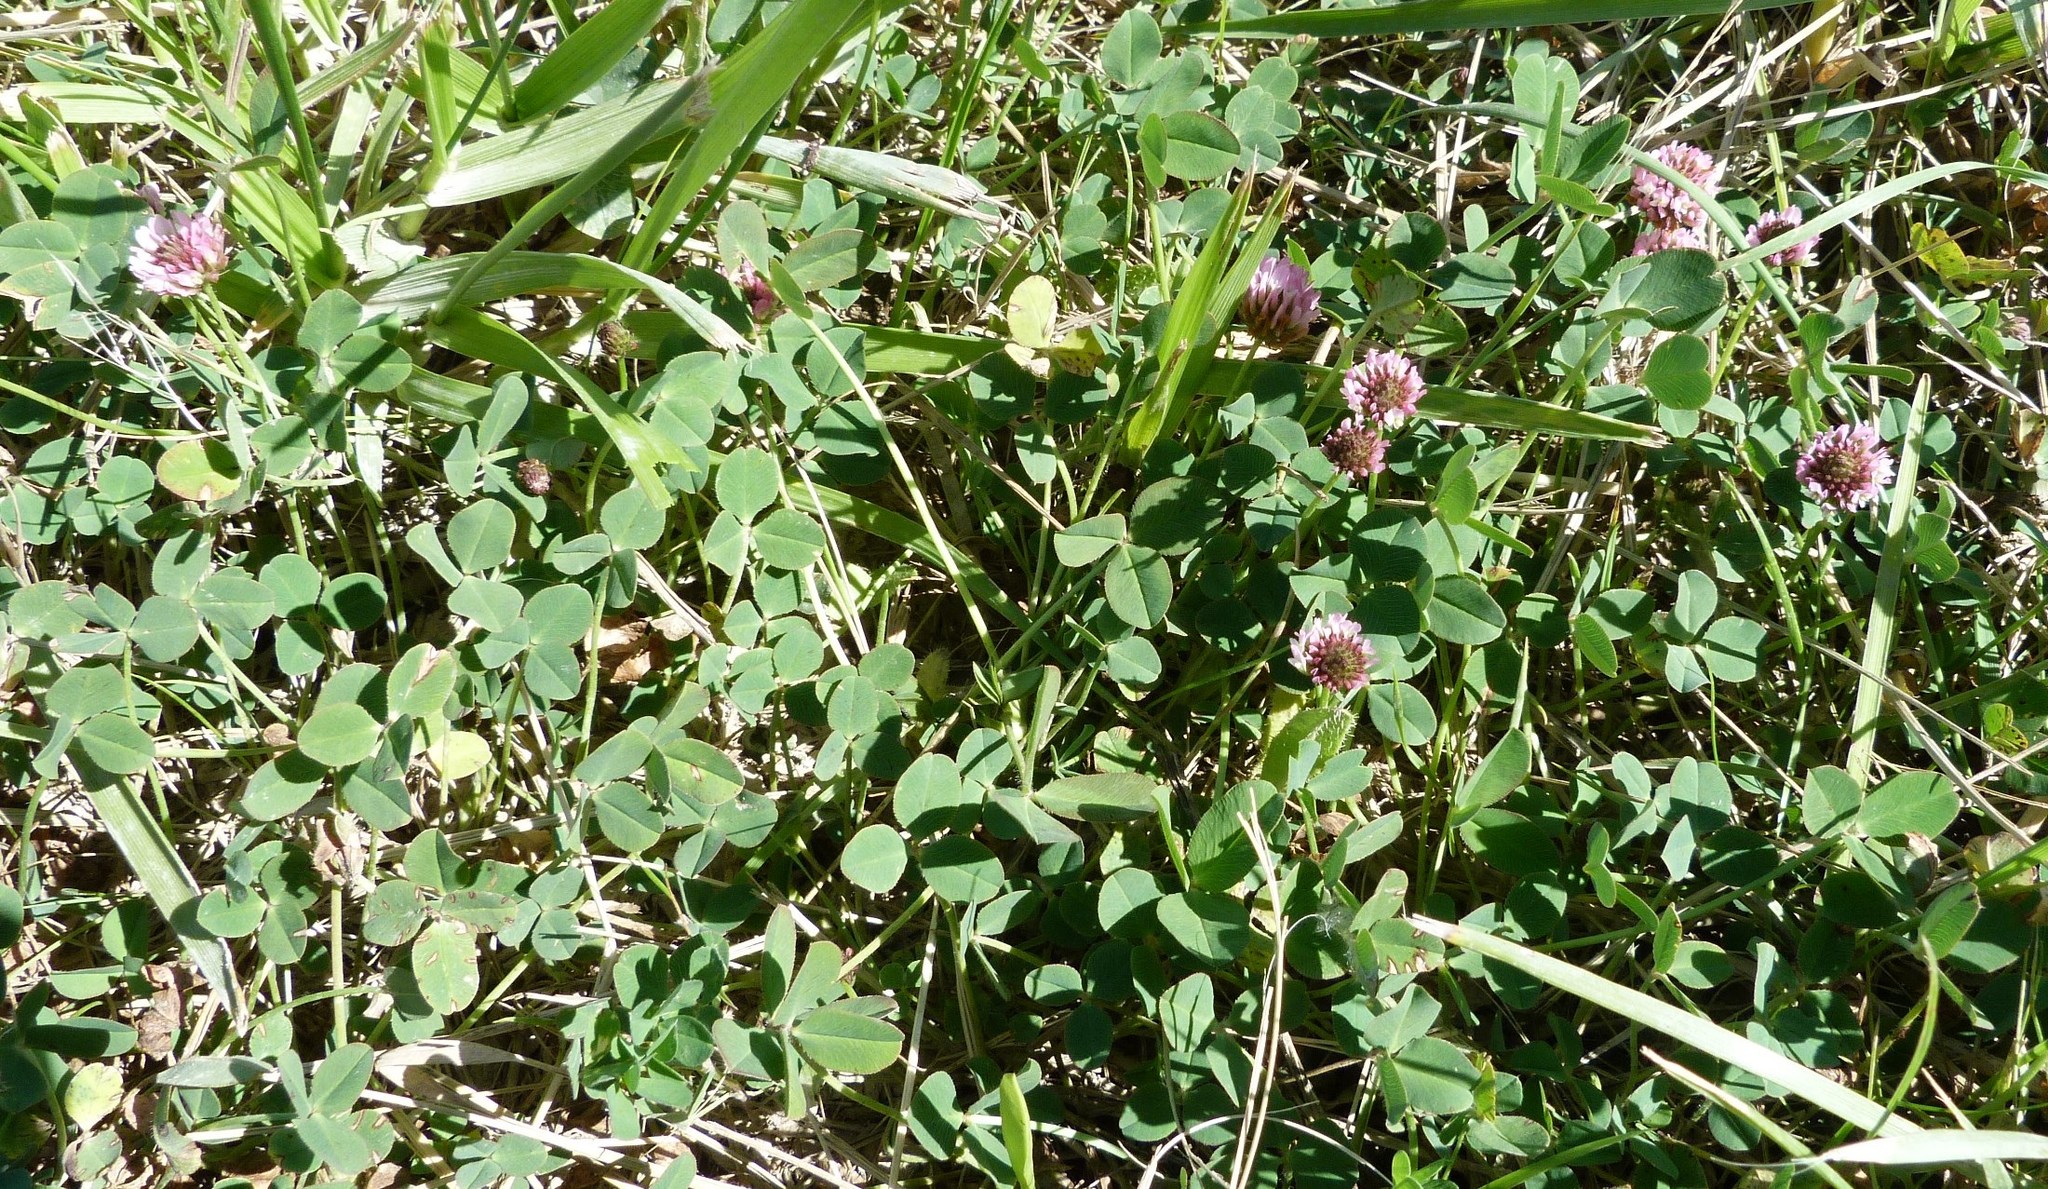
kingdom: Plantae
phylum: Tracheophyta
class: Magnoliopsida
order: Fabales
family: Fabaceae
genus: Trifolium
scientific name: Trifolium fragiferum
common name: Strawberry clover
